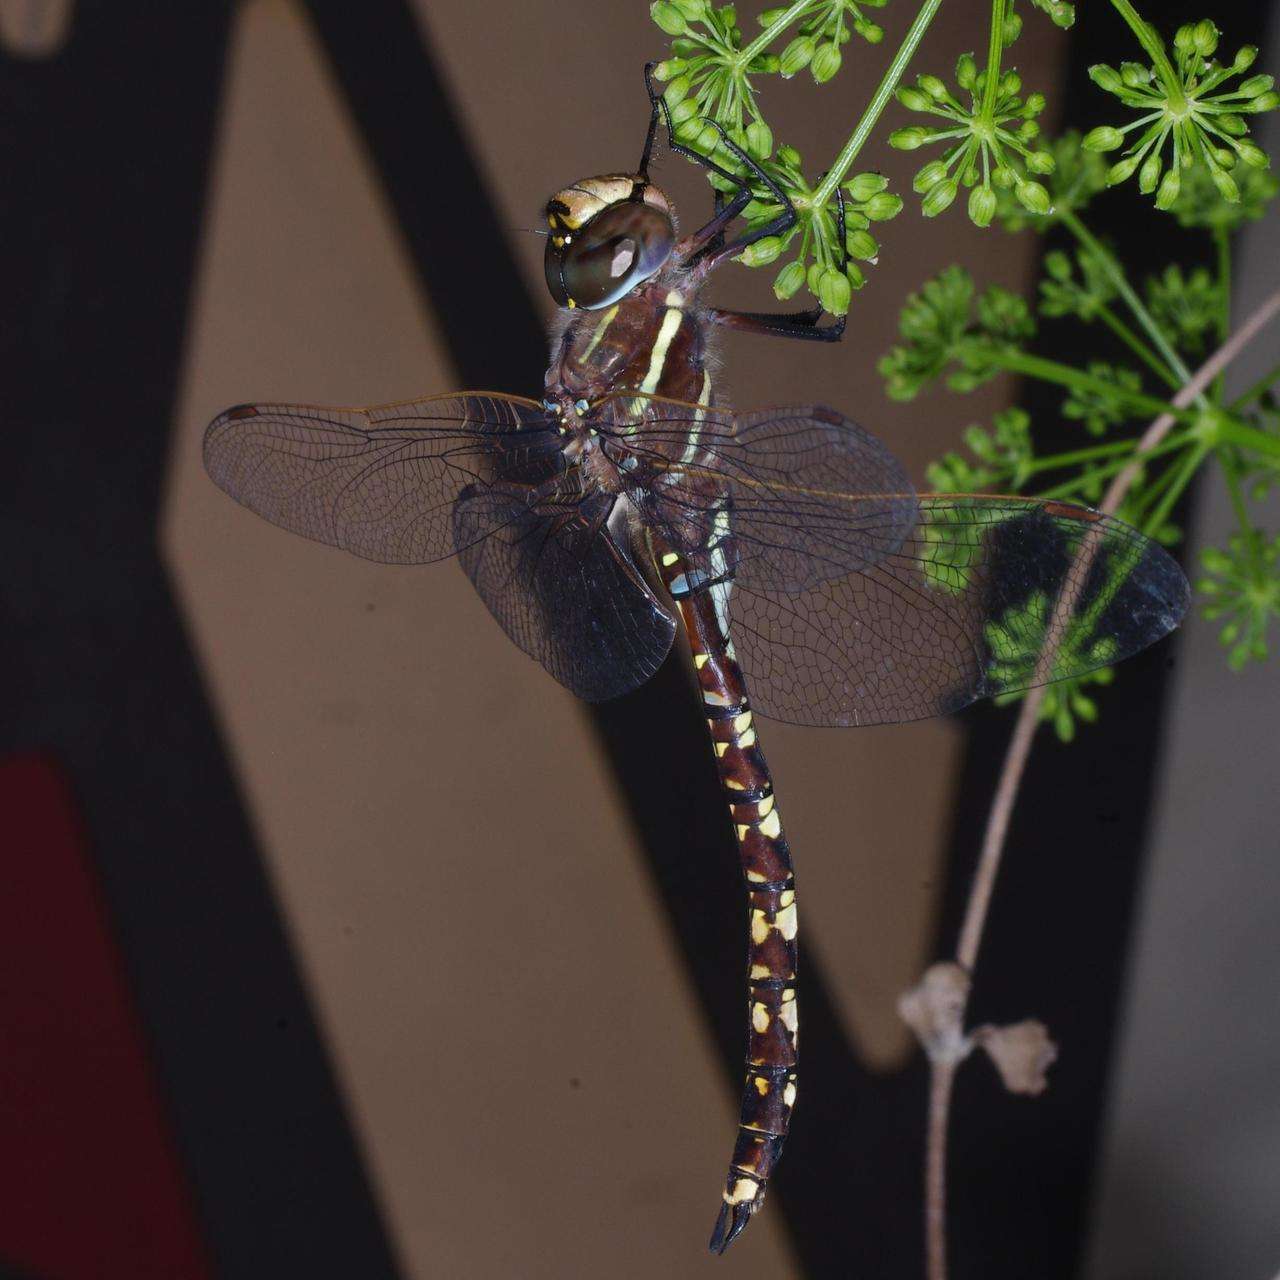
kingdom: Animalia
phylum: Arthropoda
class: Insecta
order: Odonata
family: Aeshnidae
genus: Aeshna
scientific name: Aeshna brevistyla
